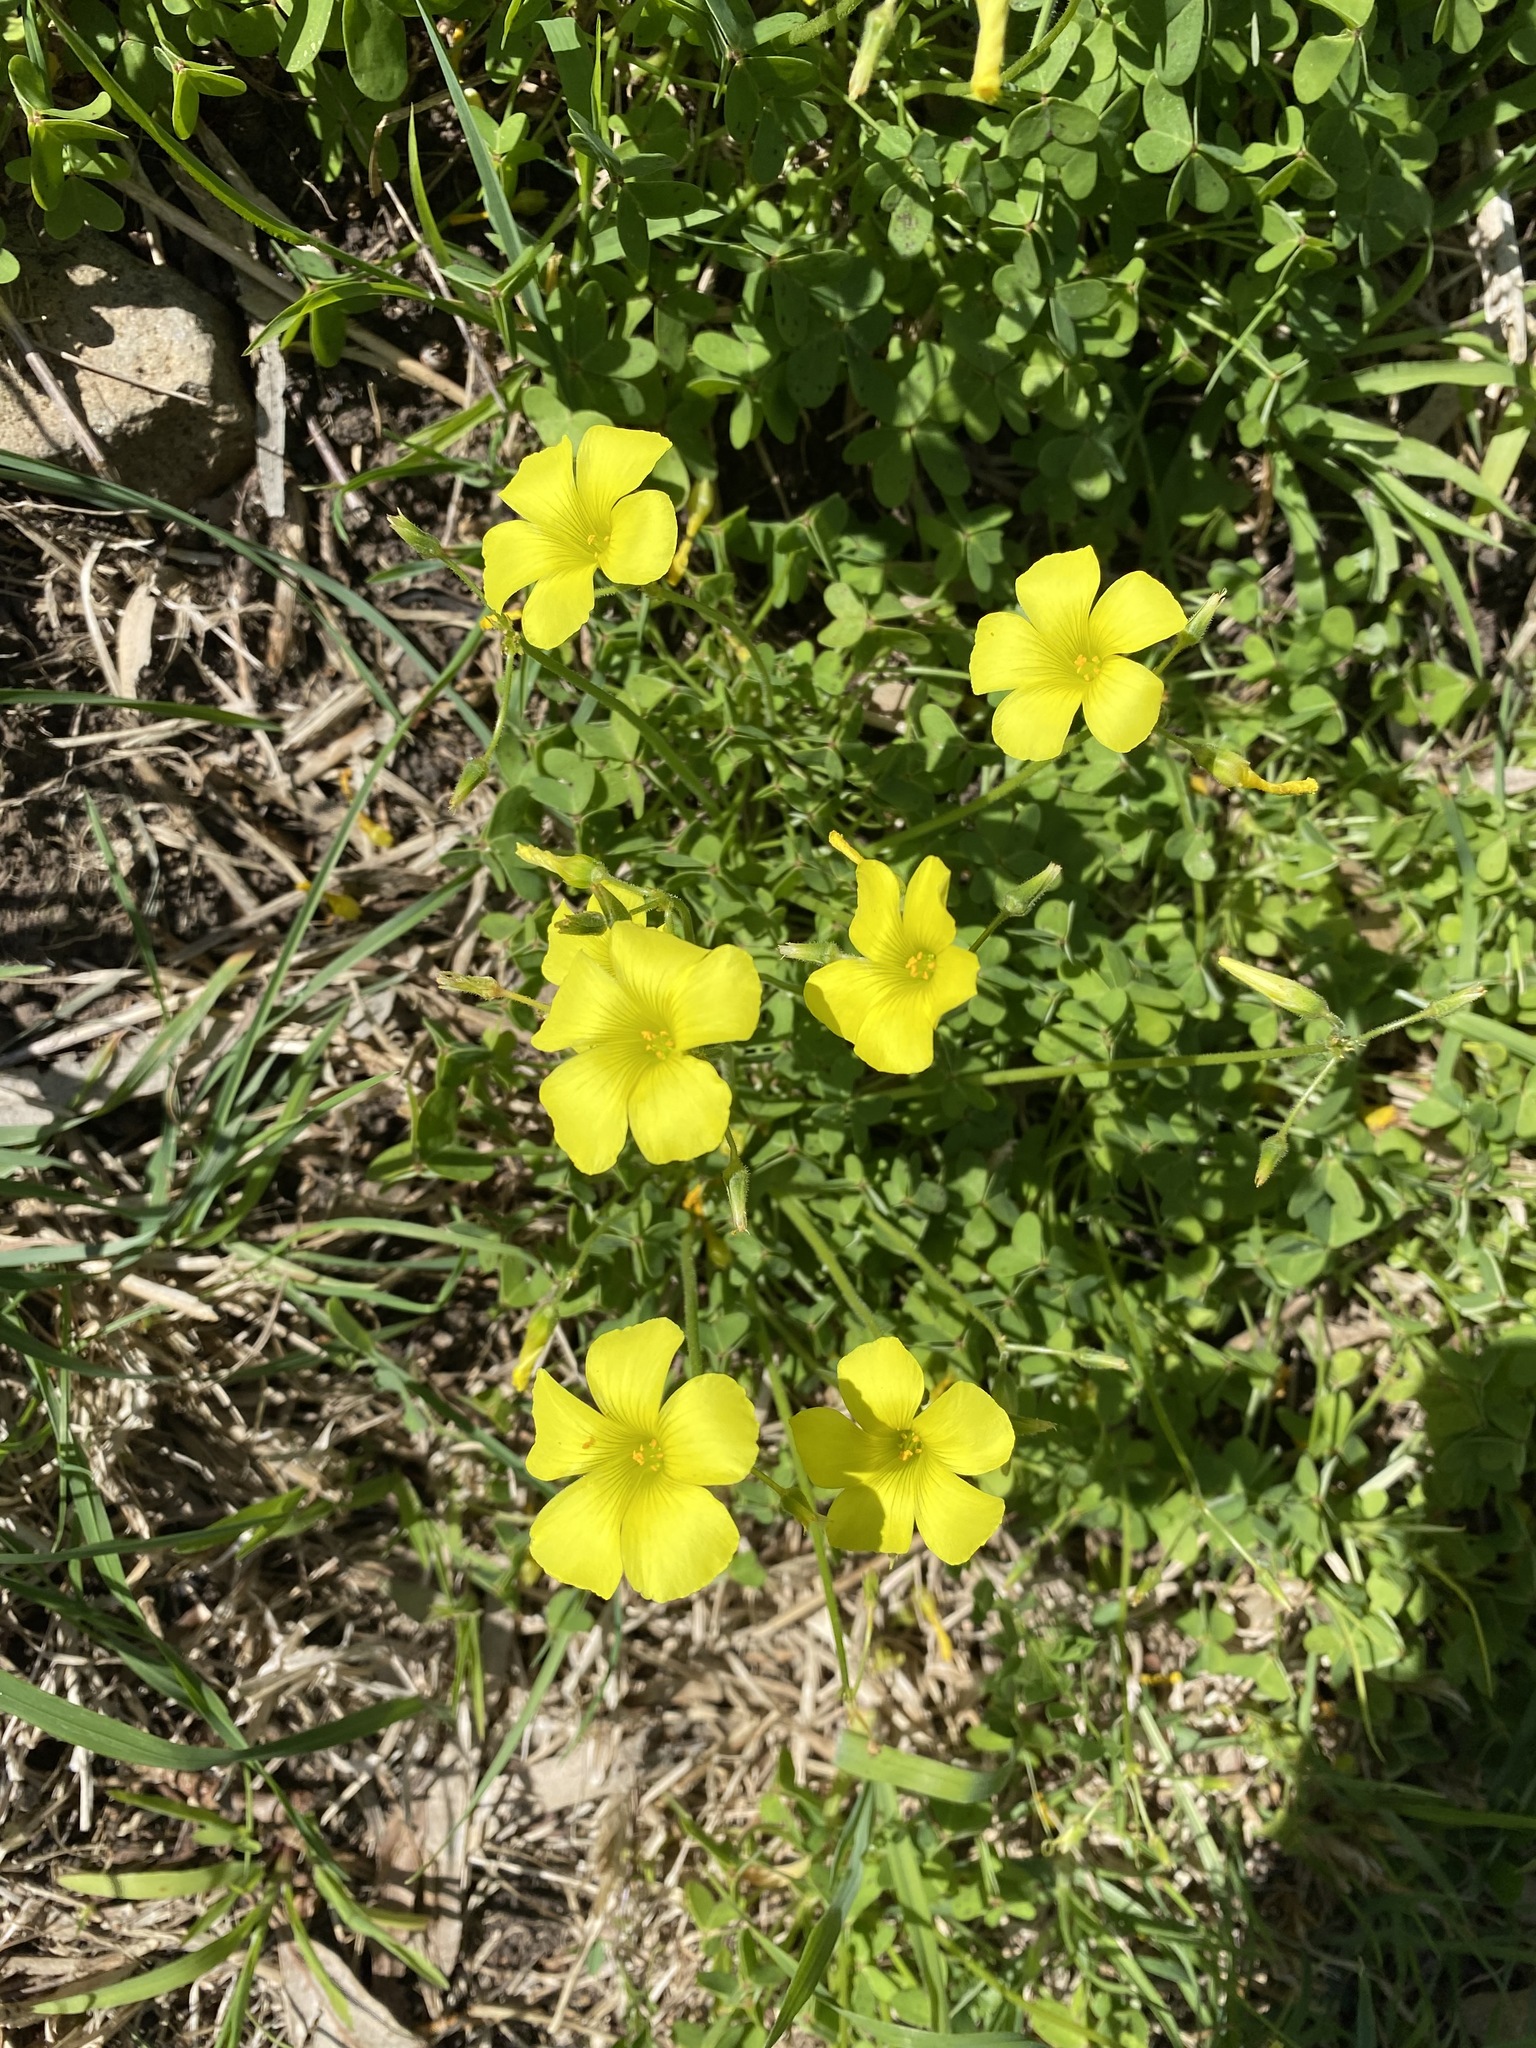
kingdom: Plantae
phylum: Tracheophyta
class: Magnoliopsida
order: Oxalidales
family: Oxalidaceae
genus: Oxalis
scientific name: Oxalis pes-caprae
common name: Bermuda-buttercup
